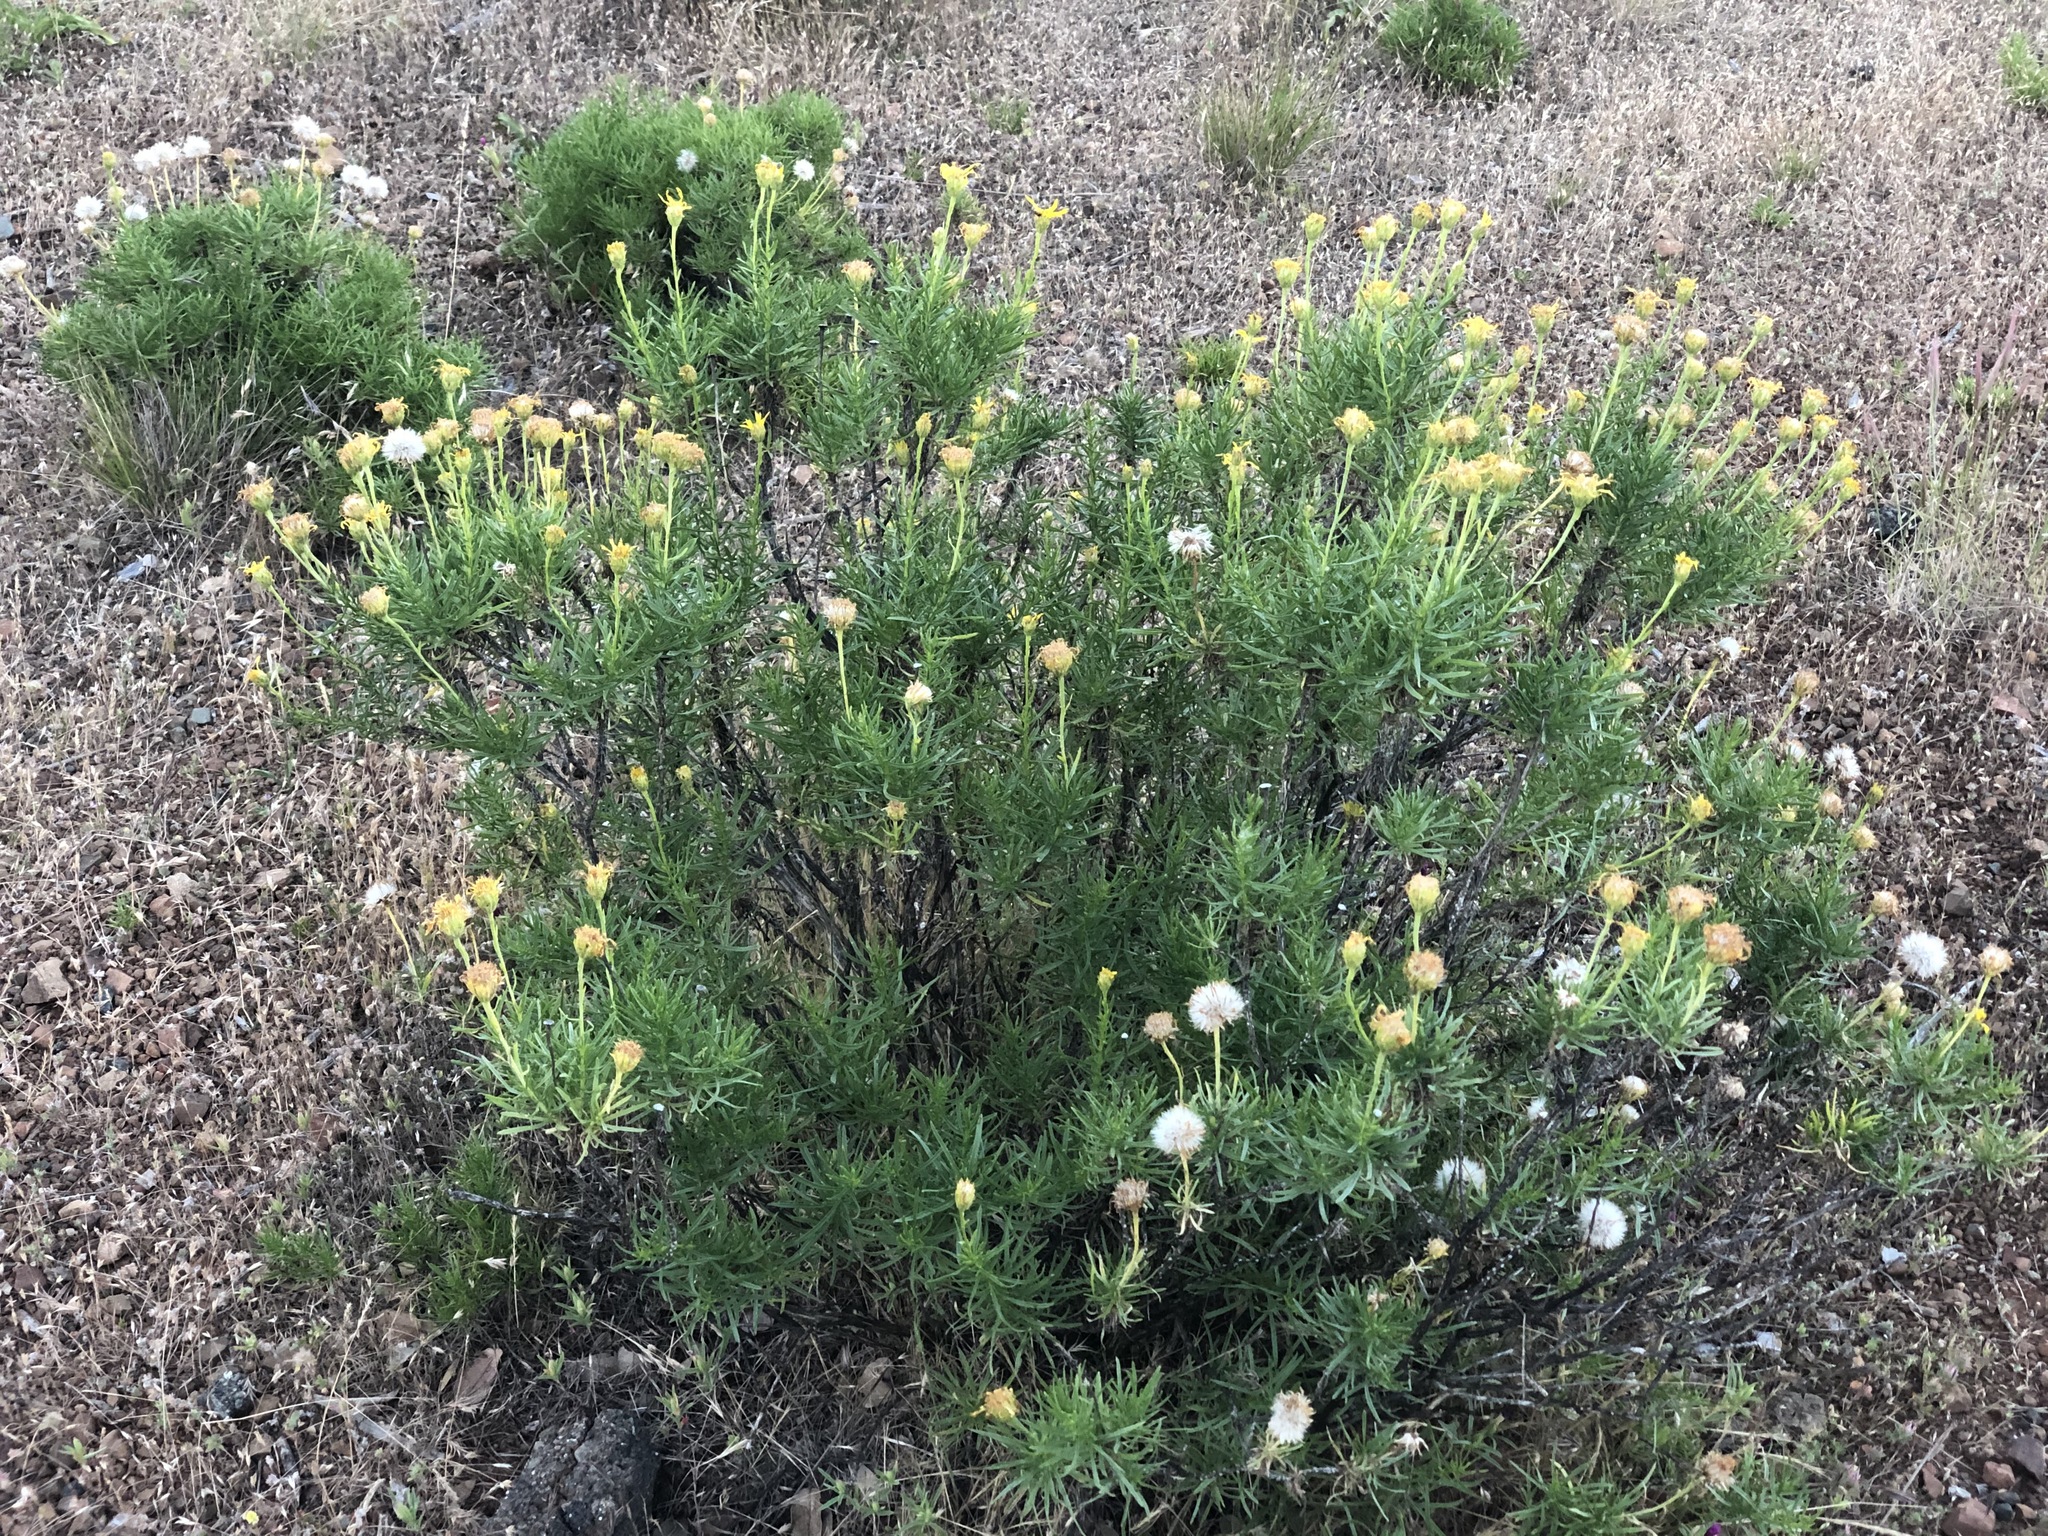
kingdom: Plantae
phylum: Tracheophyta
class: Magnoliopsida
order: Asterales
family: Asteraceae
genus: Ericameria
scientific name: Ericameria linearifolia
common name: Interior goldenbush
